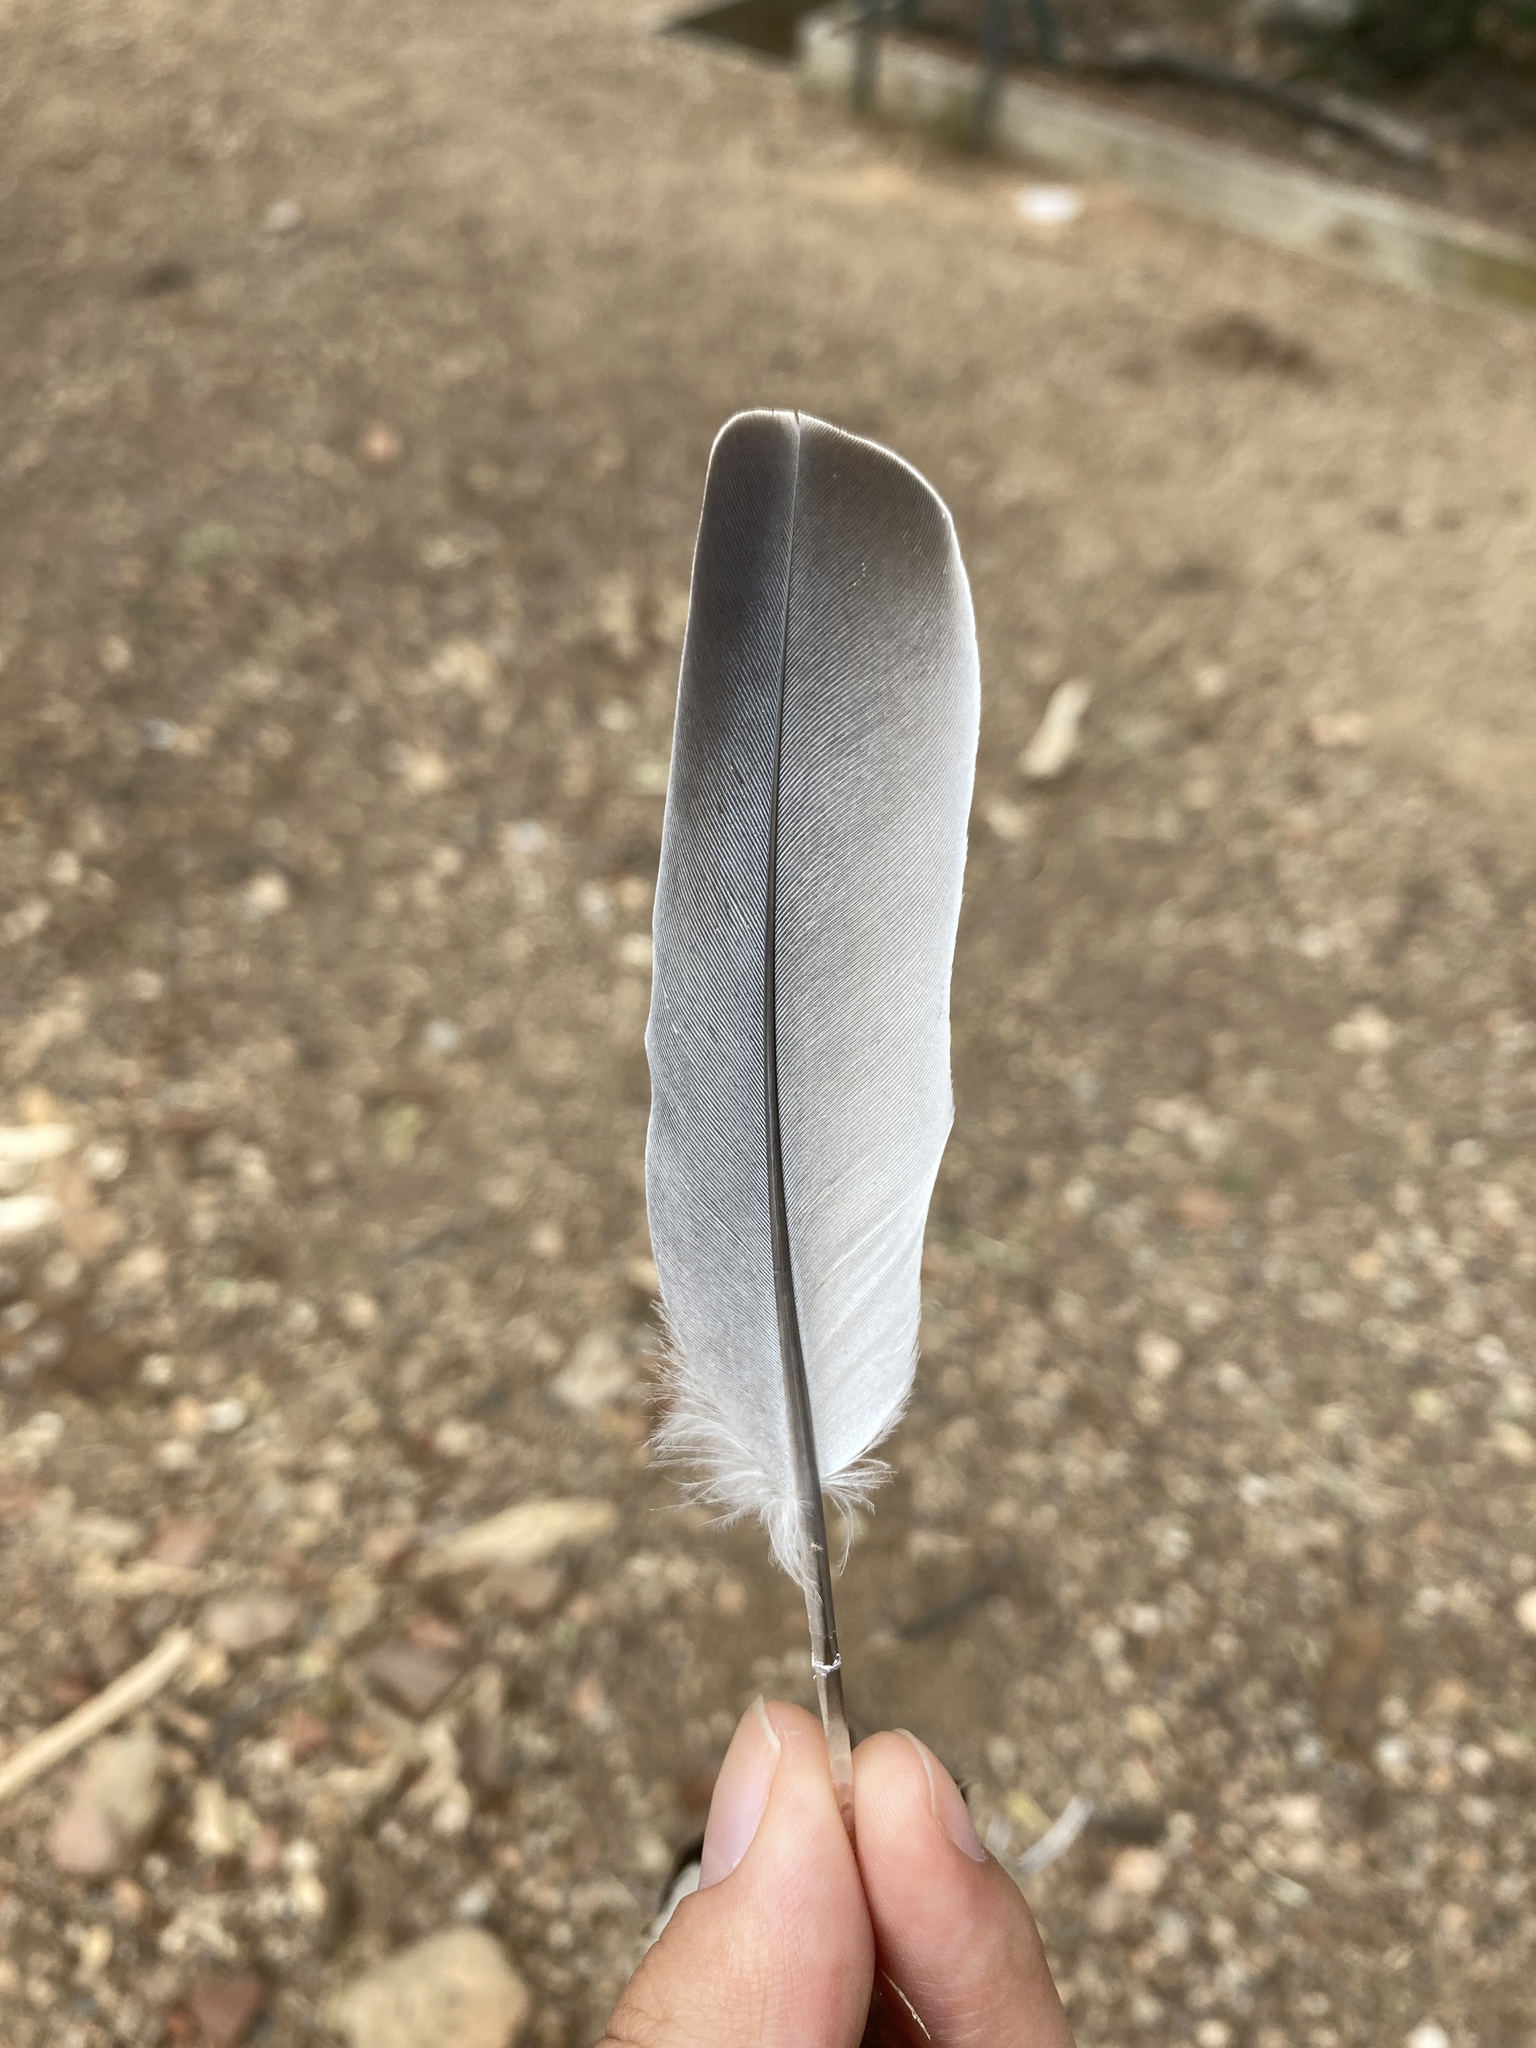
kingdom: Animalia
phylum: Chordata
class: Aves
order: Columbiformes
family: Columbidae
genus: Streptopelia
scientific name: Streptopelia decaocto
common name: Eurasian collared dove
